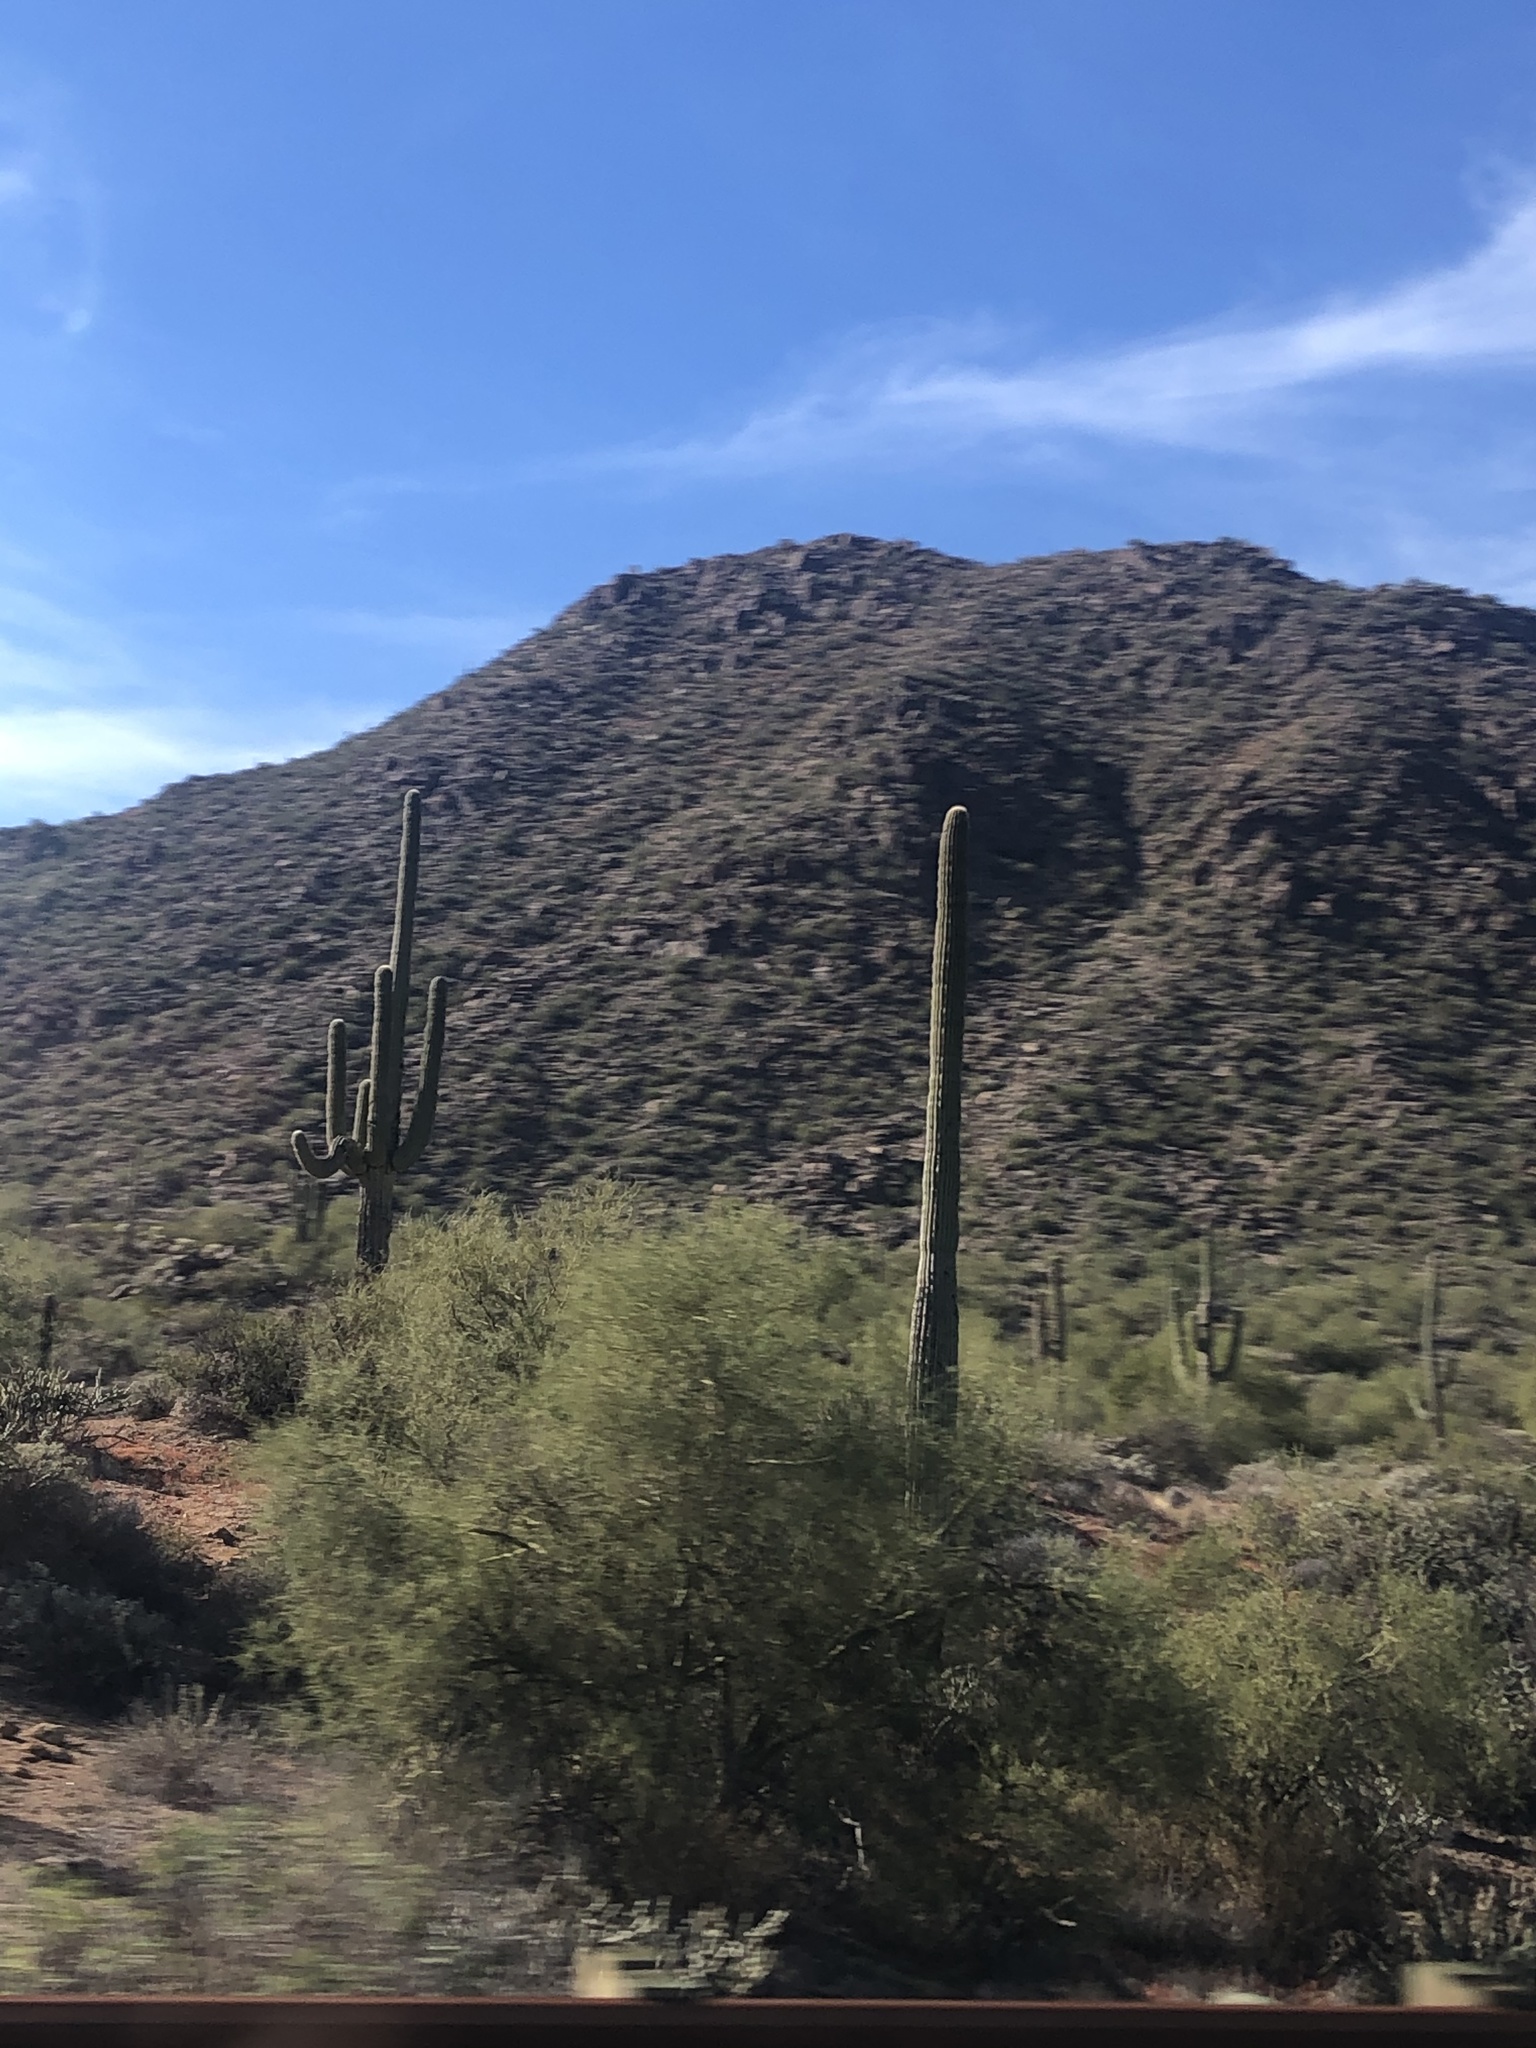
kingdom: Plantae
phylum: Tracheophyta
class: Magnoliopsida
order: Caryophyllales
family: Cactaceae
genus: Carnegiea
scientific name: Carnegiea gigantea
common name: Saguaro
